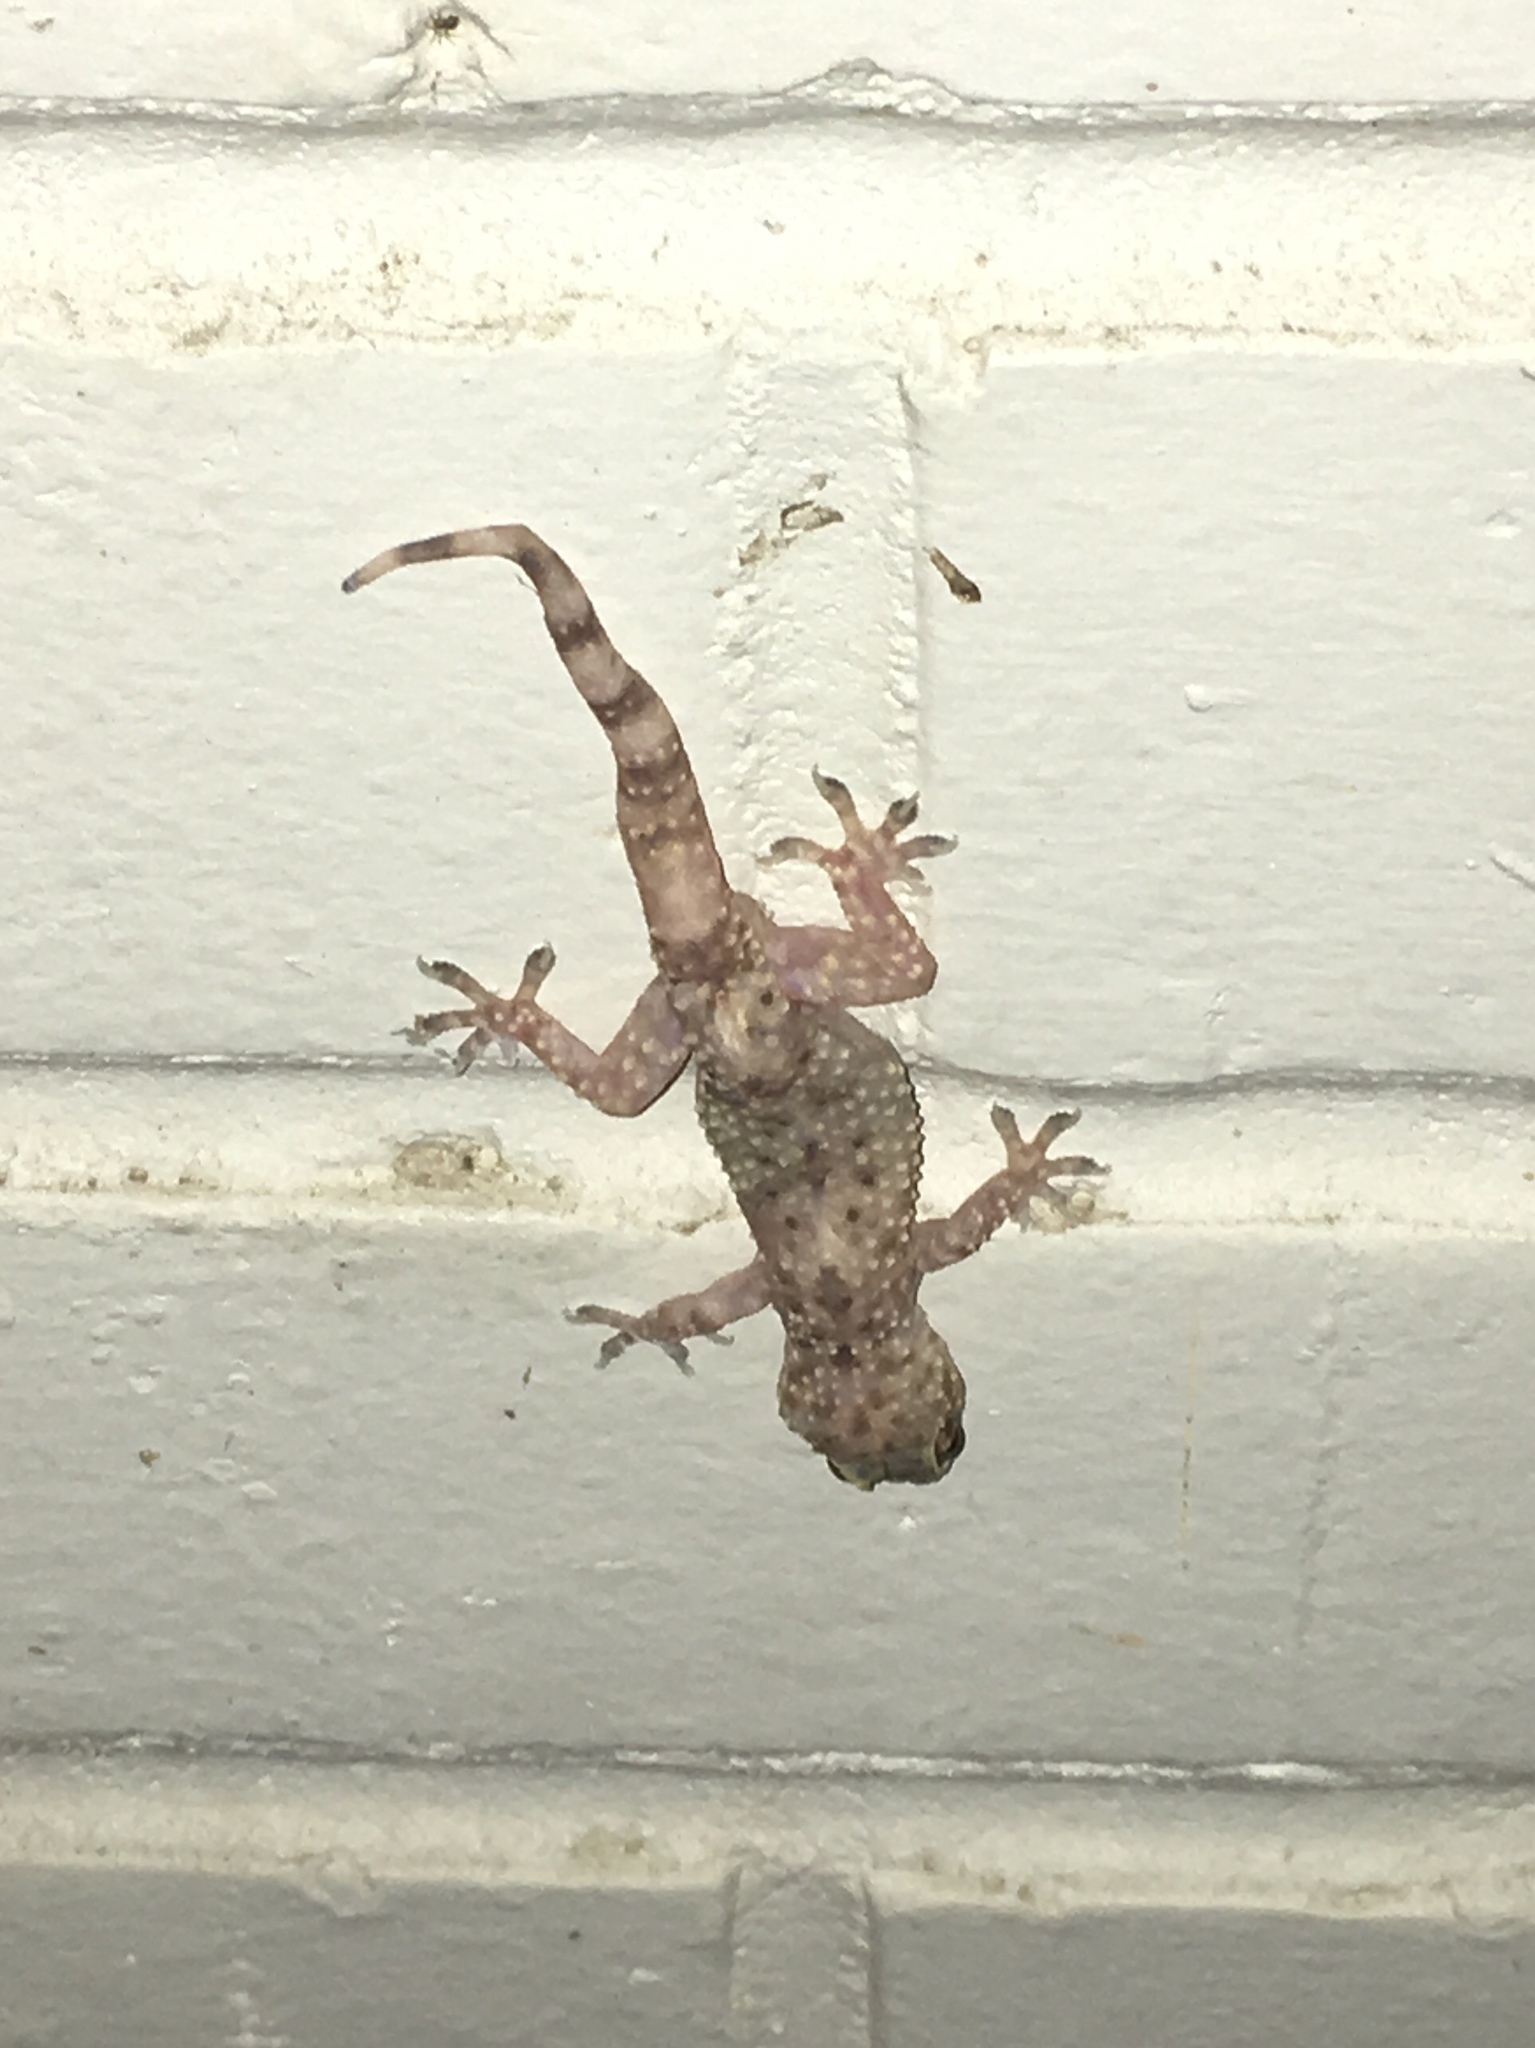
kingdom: Animalia
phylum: Chordata
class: Squamata
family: Gekkonidae
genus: Hemidactylus
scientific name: Hemidactylus turcicus
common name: Turkish gecko
